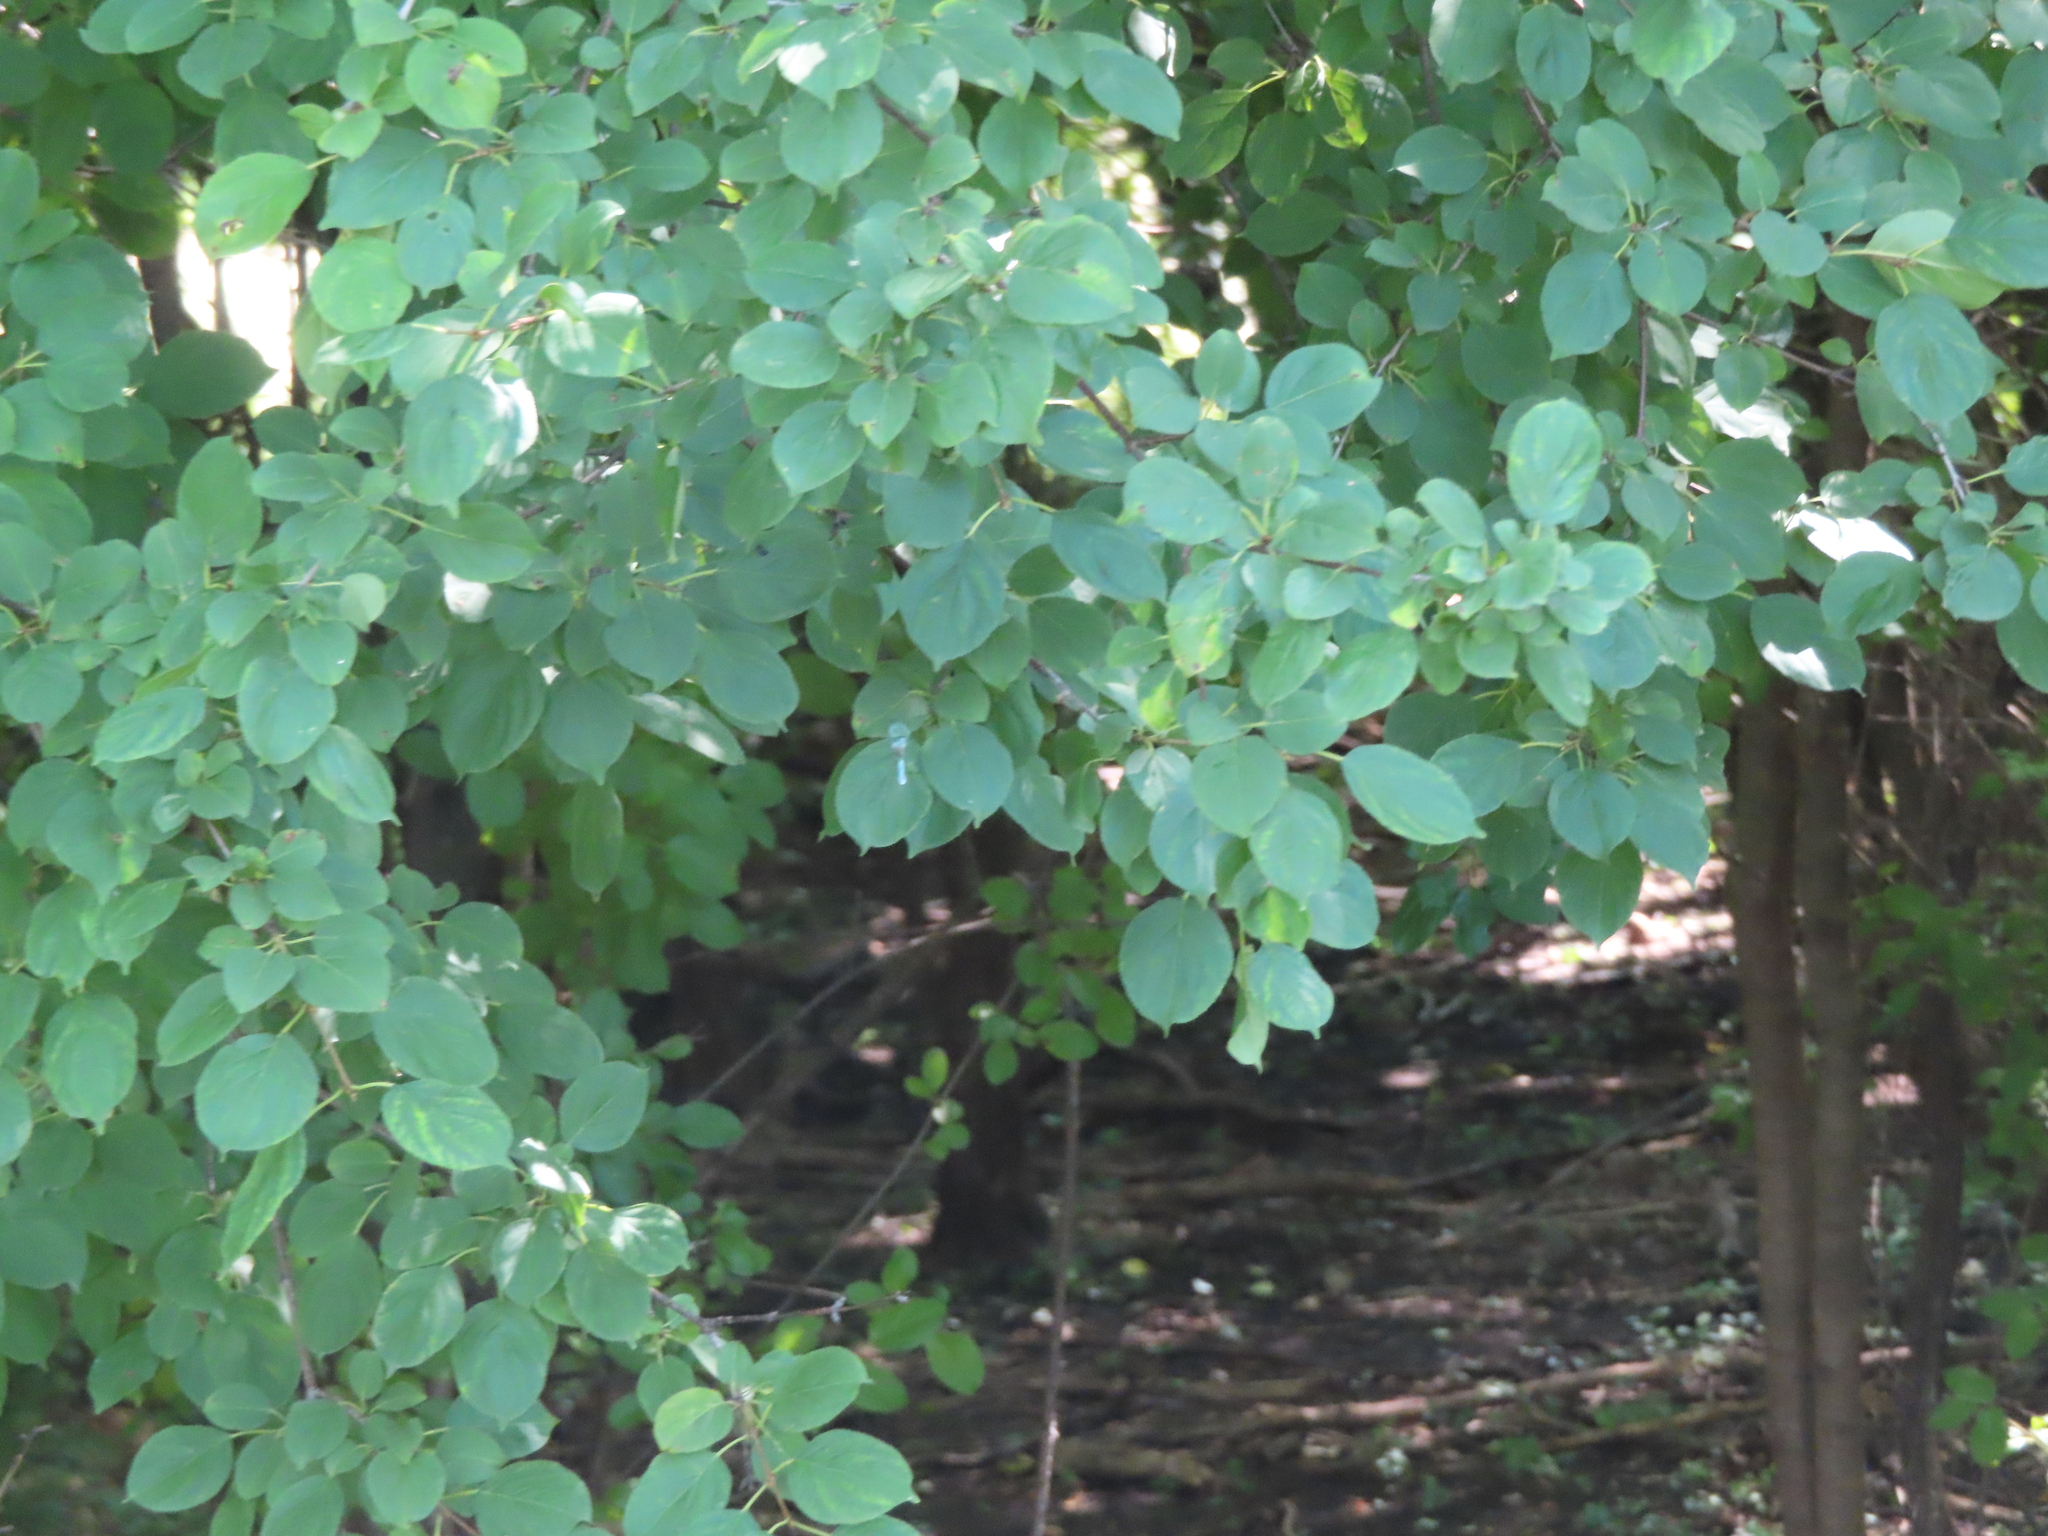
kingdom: Plantae
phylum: Tracheophyta
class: Magnoliopsida
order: Rosales
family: Rhamnaceae
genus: Rhamnus
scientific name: Rhamnus cathartica
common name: Common buckthorn
